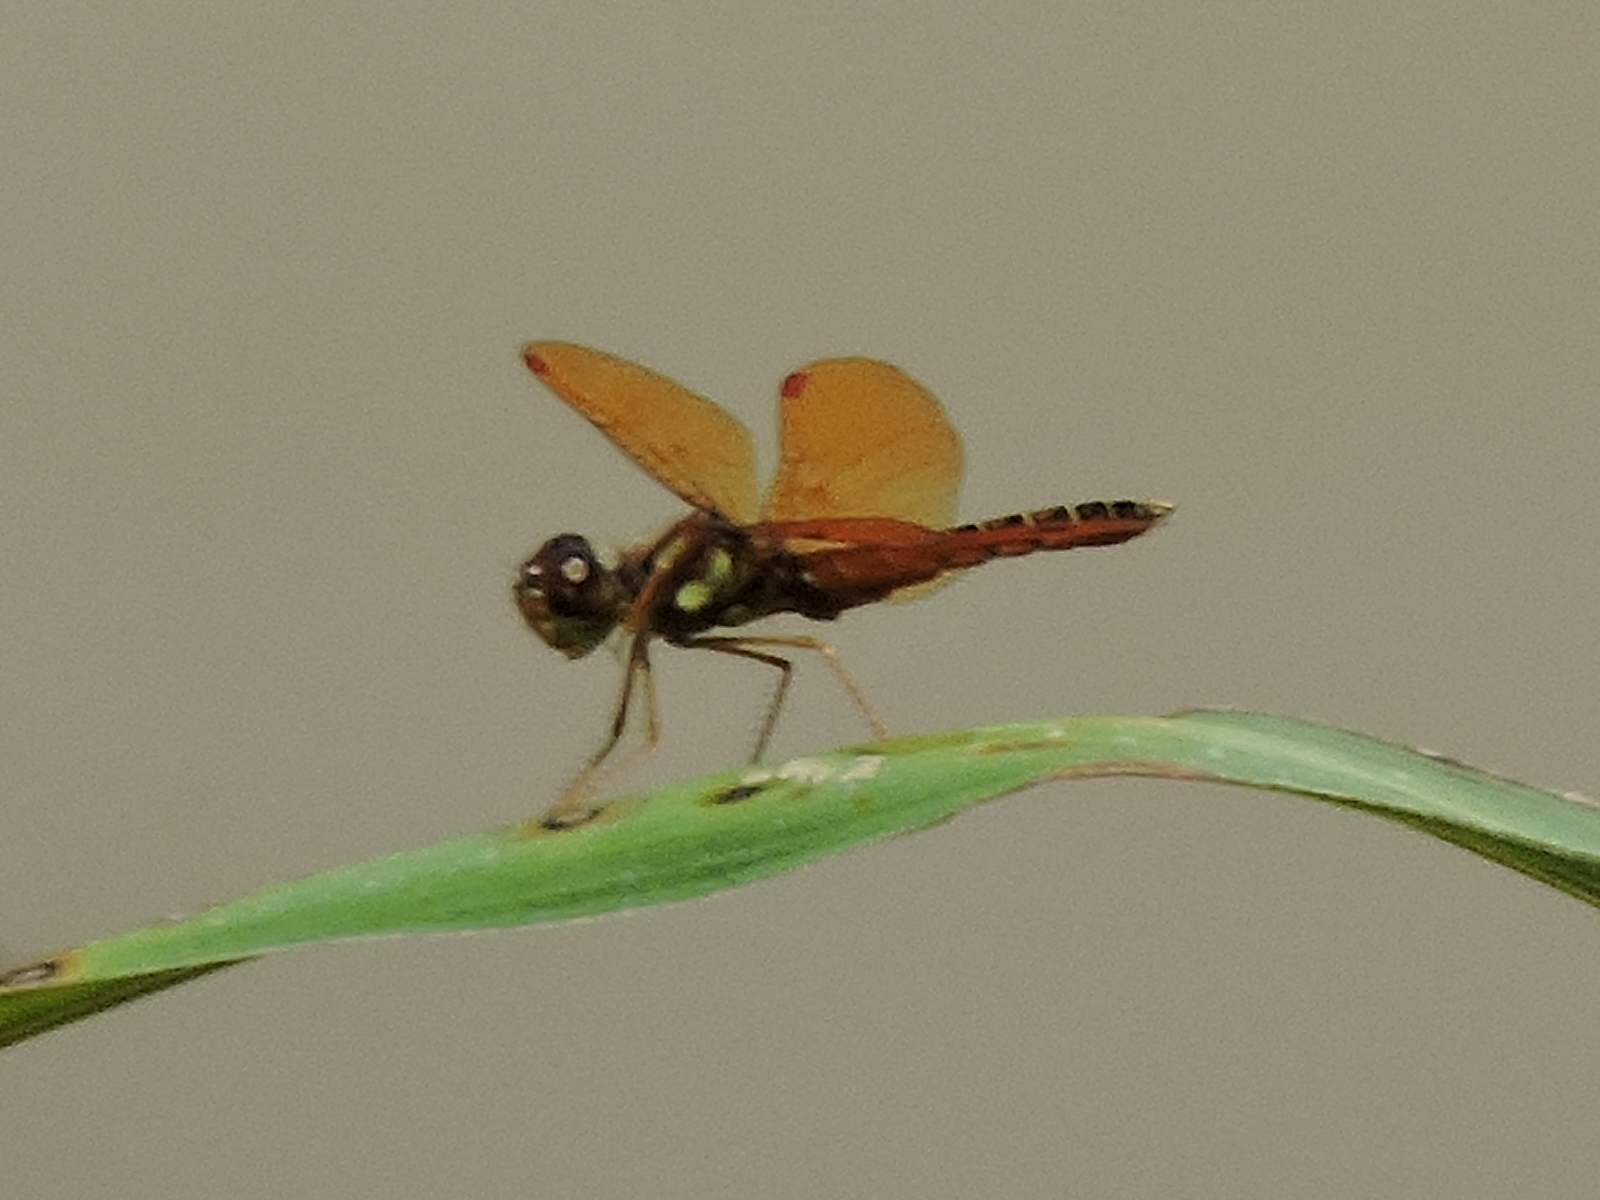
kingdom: Animalia
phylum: Arthropoda
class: Insecta
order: Odonata
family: Libellulidae
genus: Perithemis
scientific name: Perithemis tenera
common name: Eastern amberwing
